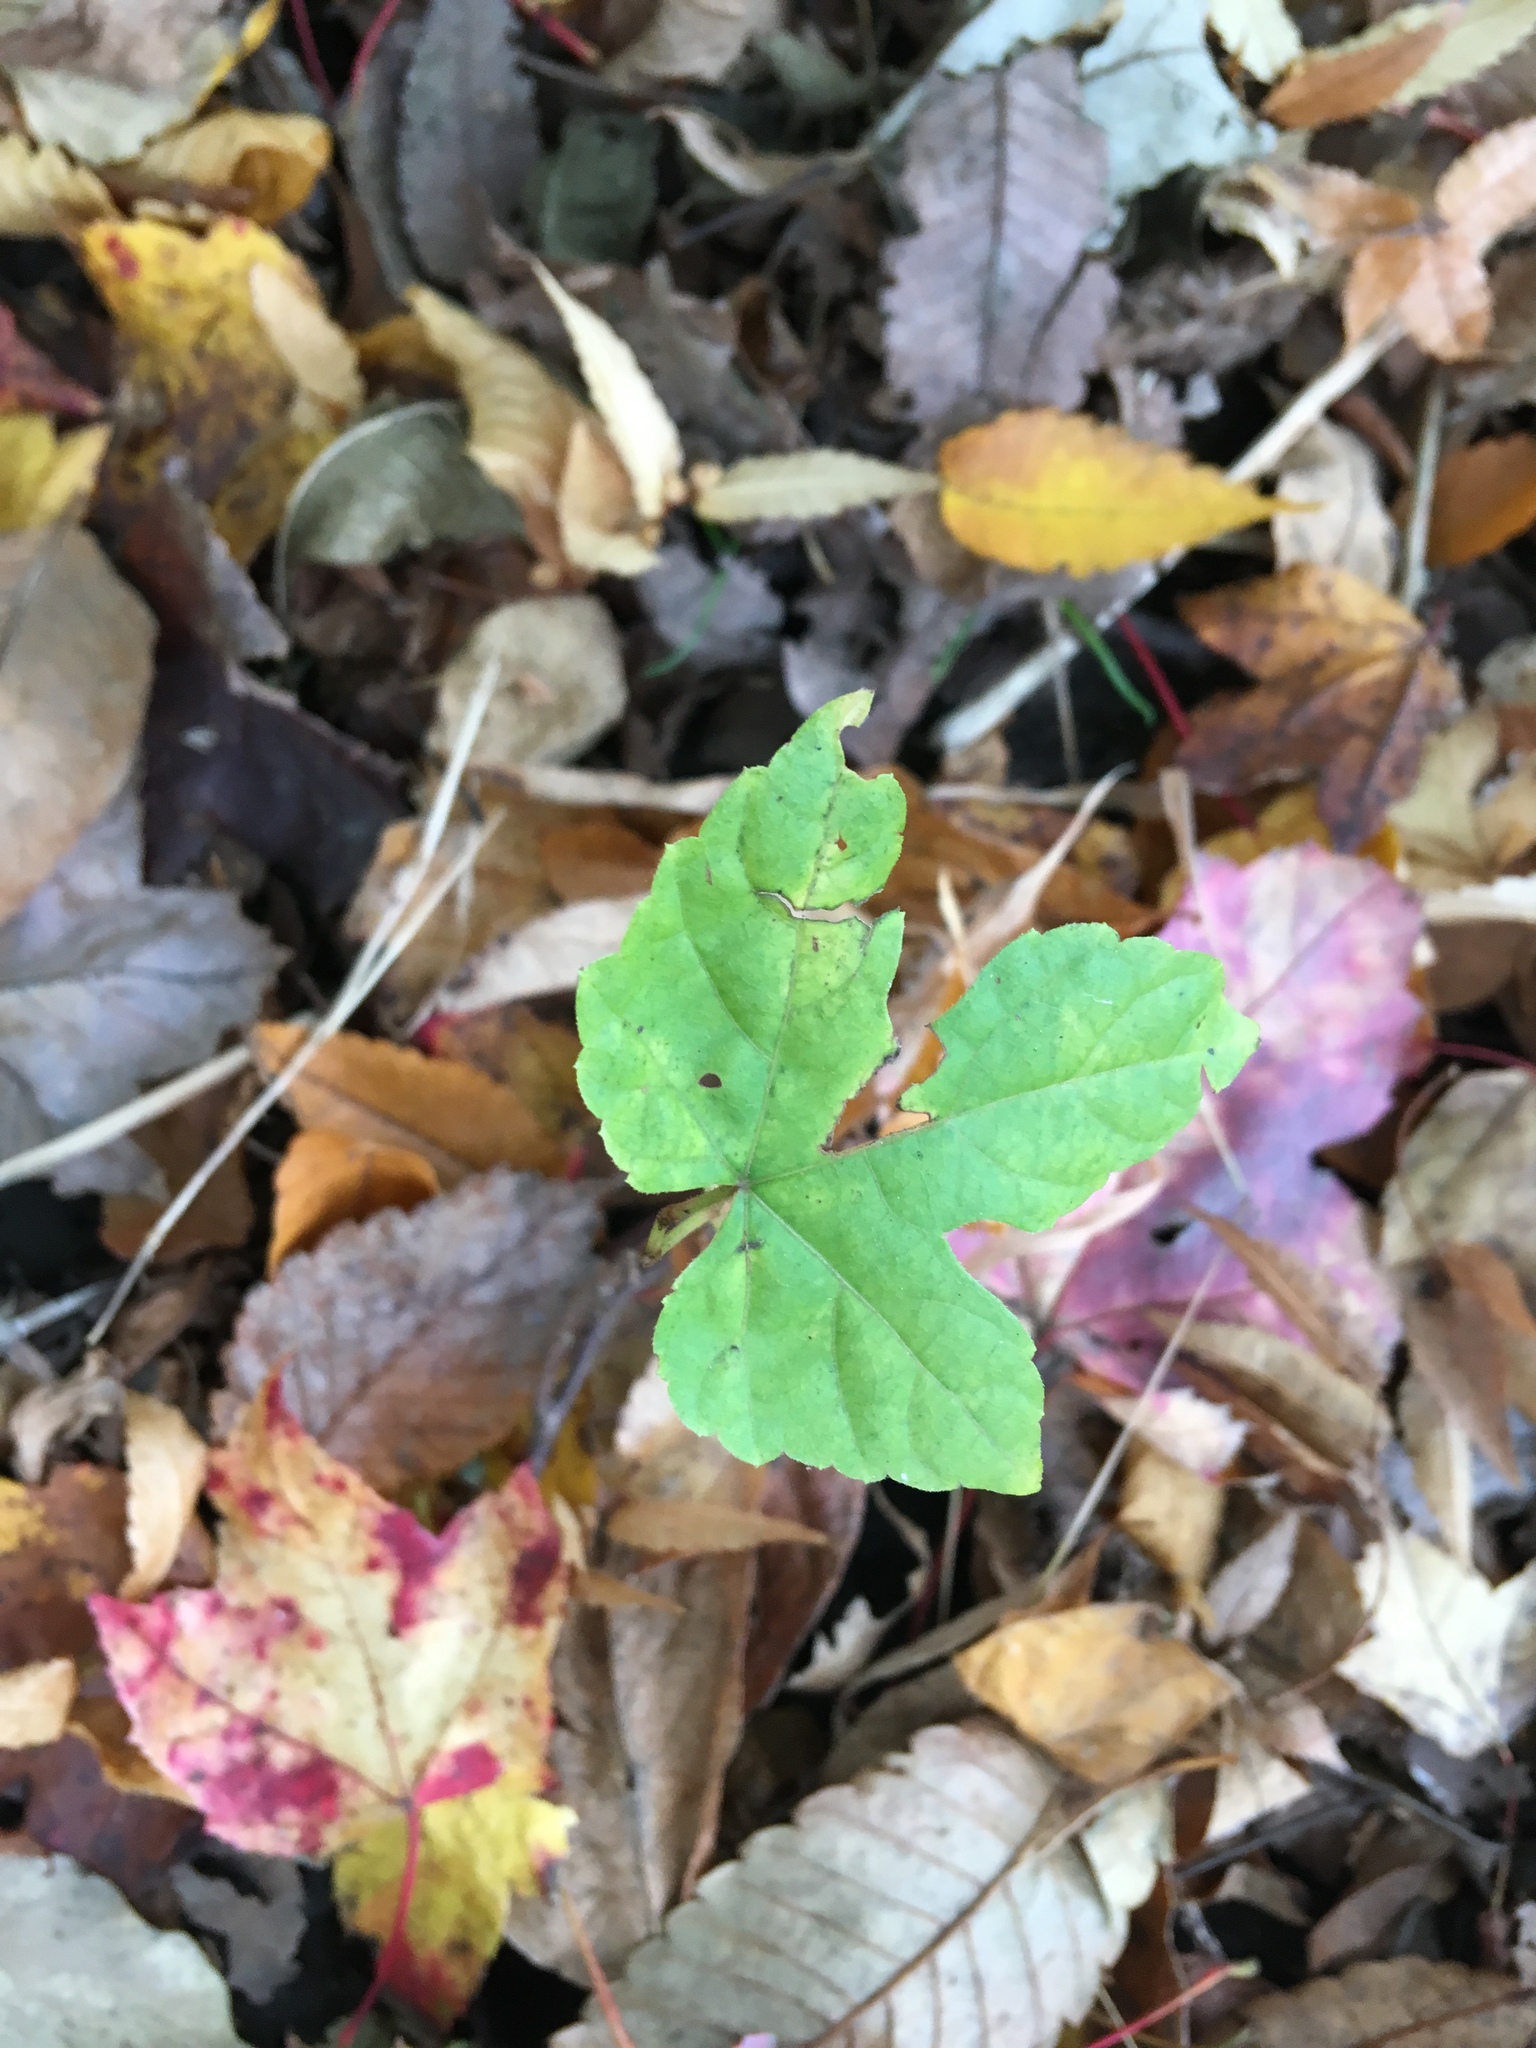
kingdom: Plantae
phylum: Tracheophyta
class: Magnoliopsida
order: Vitales
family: Vitaceae
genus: Ampelopsis
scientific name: Ampelopsis glandulosa
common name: Amur peppervine
